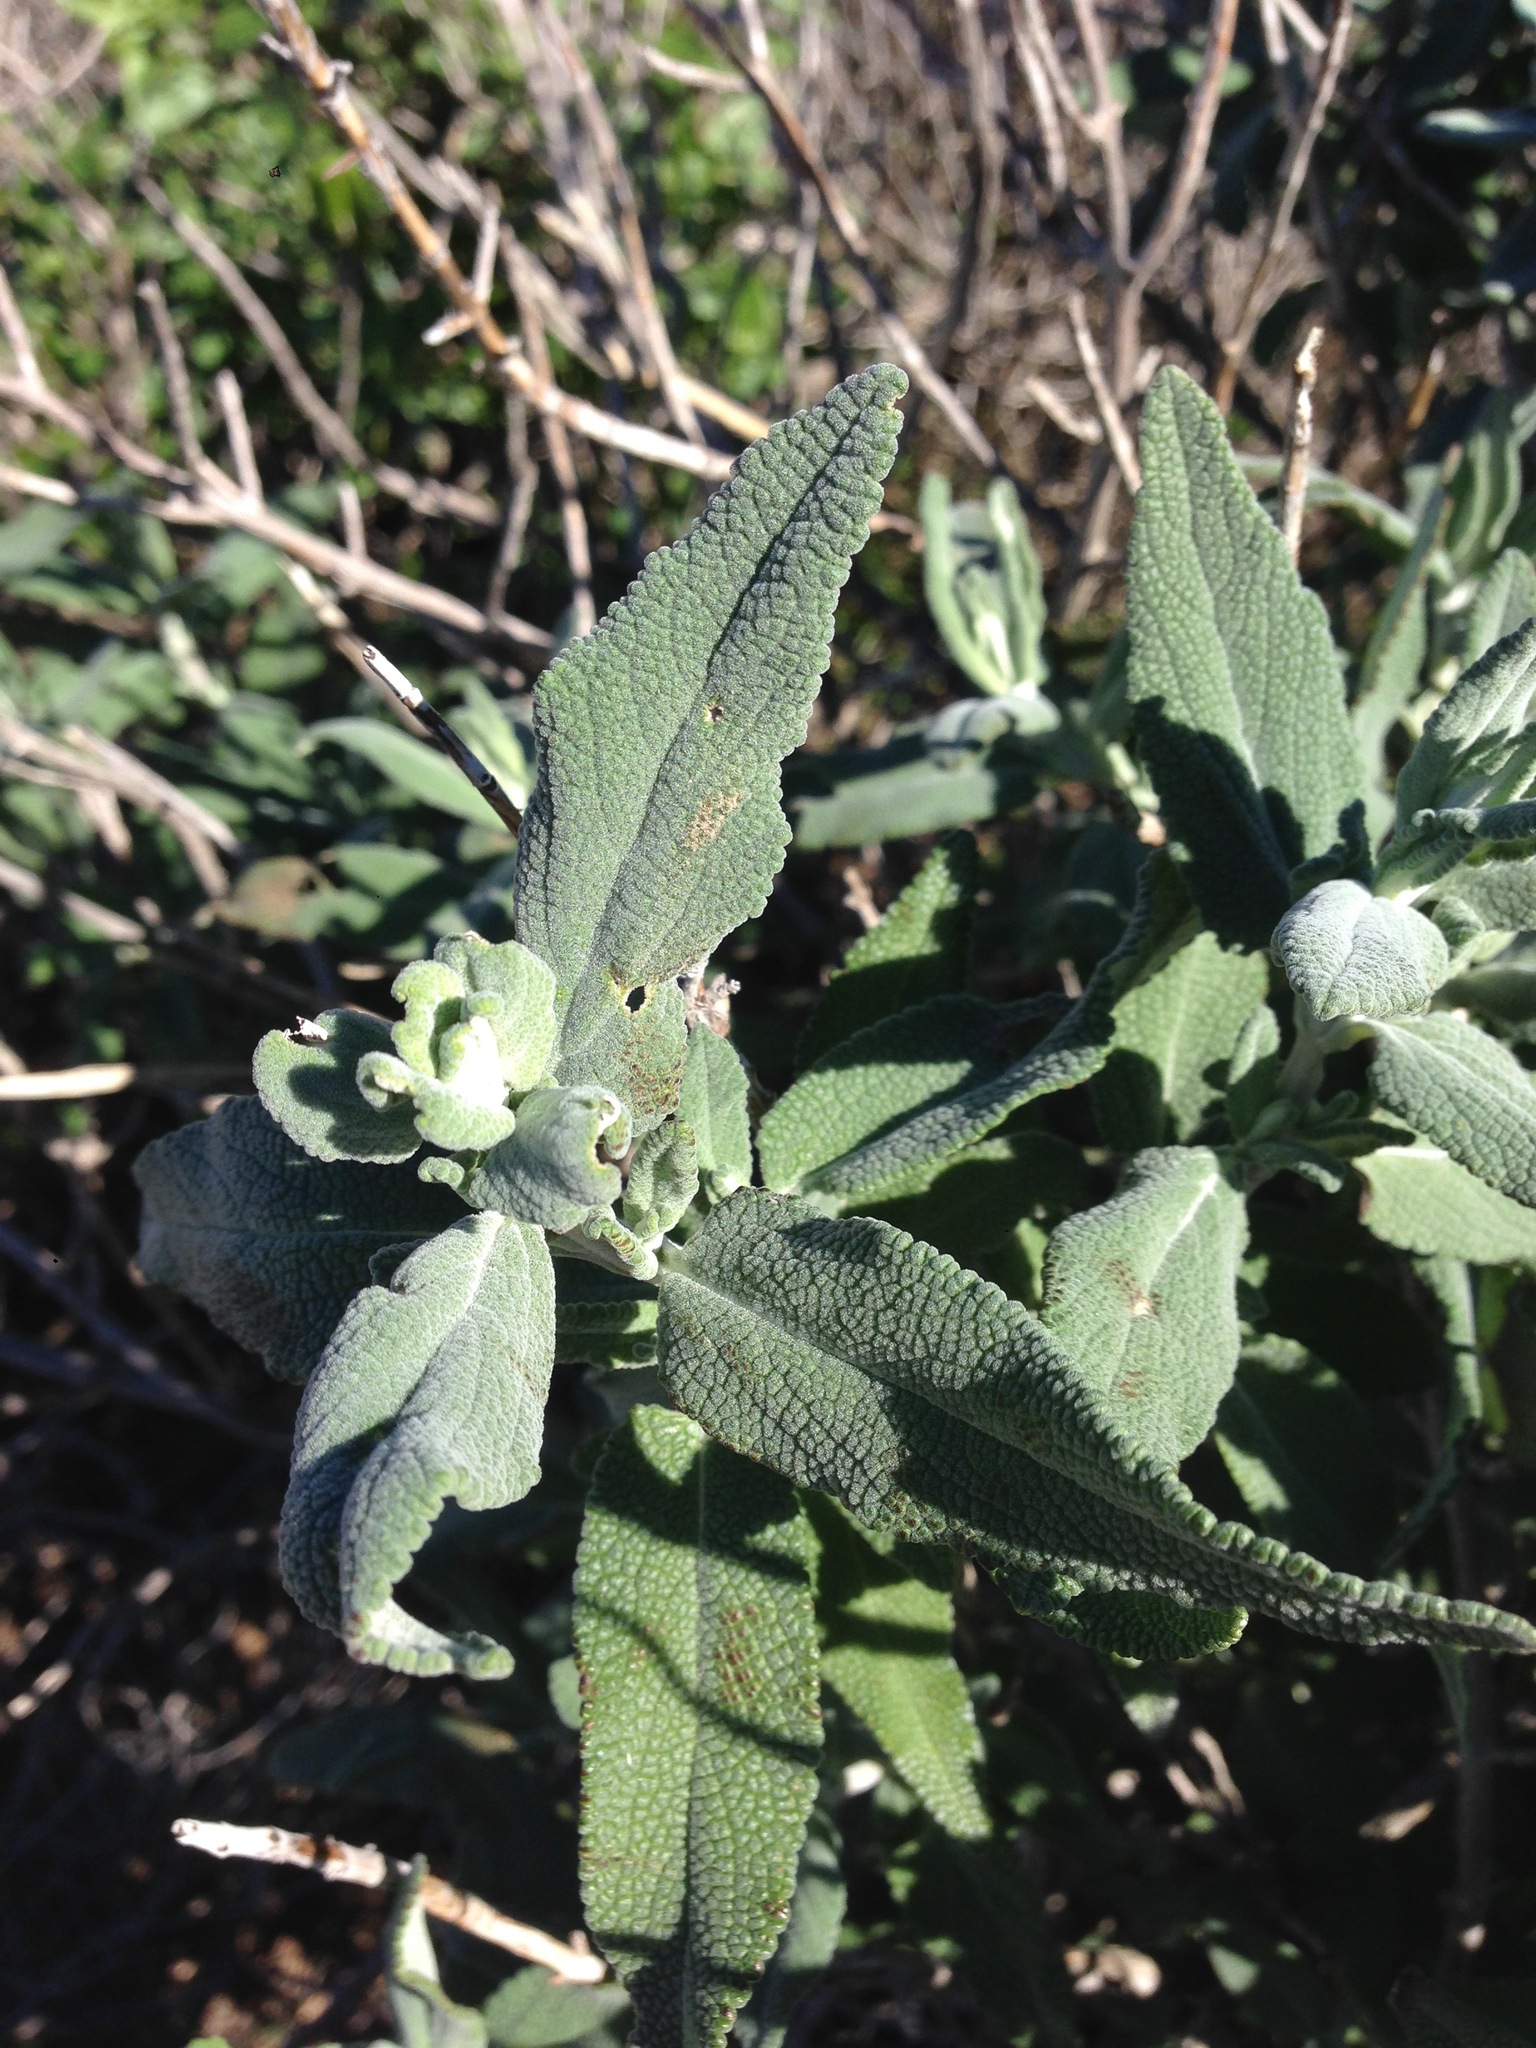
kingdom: Plantae
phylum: Tracheophyta
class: Magnoliopsida
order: Lamiales
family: Lamiaceae
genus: Salvia
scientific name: Salvia leucophylla
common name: Purple sage
